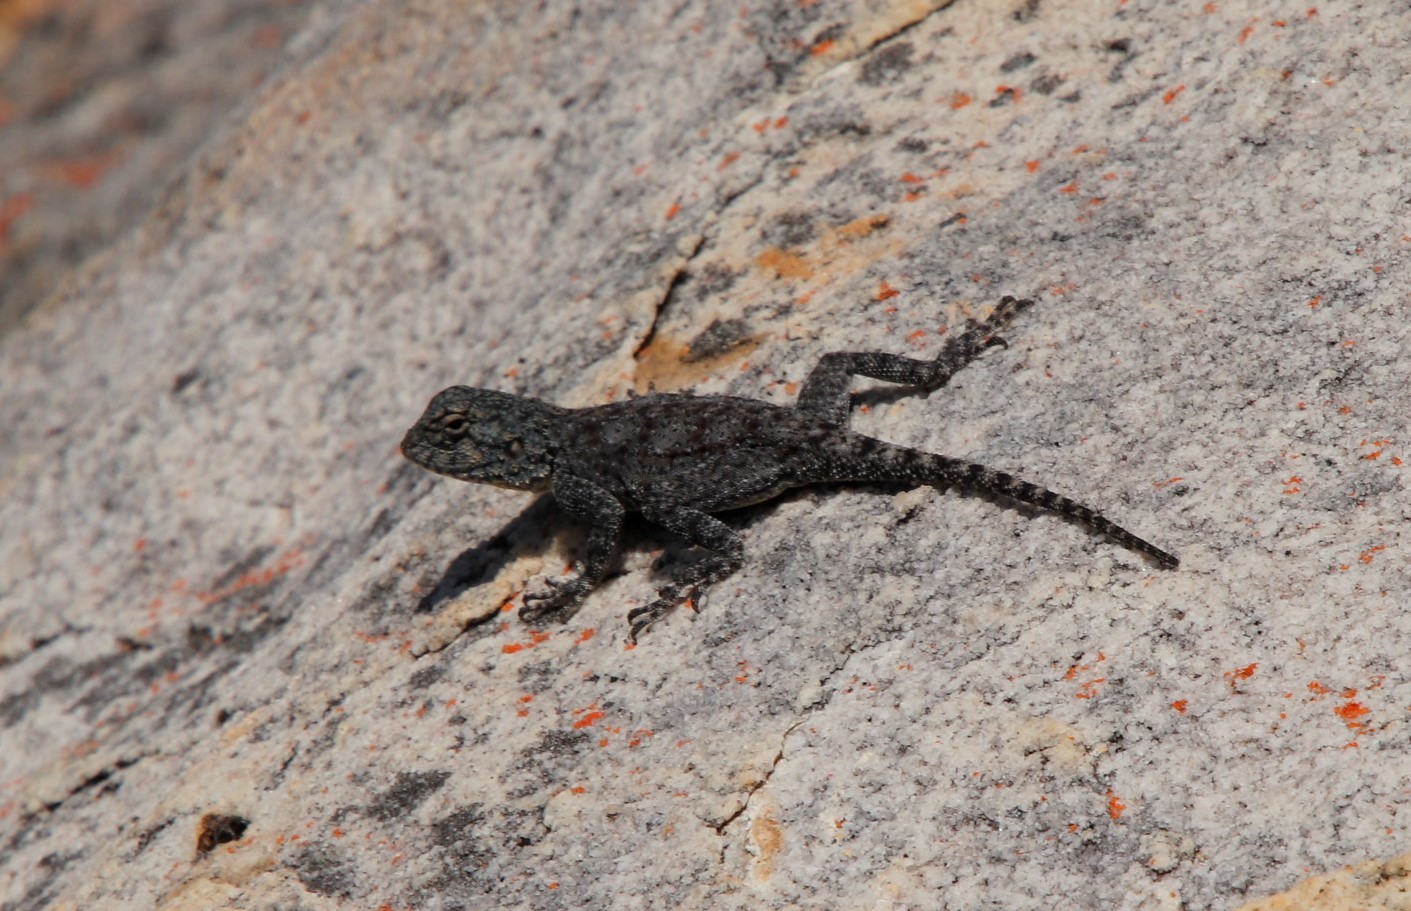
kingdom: Animalia
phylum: Chordata
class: Squamata
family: Agamidae
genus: Agama
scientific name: Agama atra
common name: Southern african rock agama
